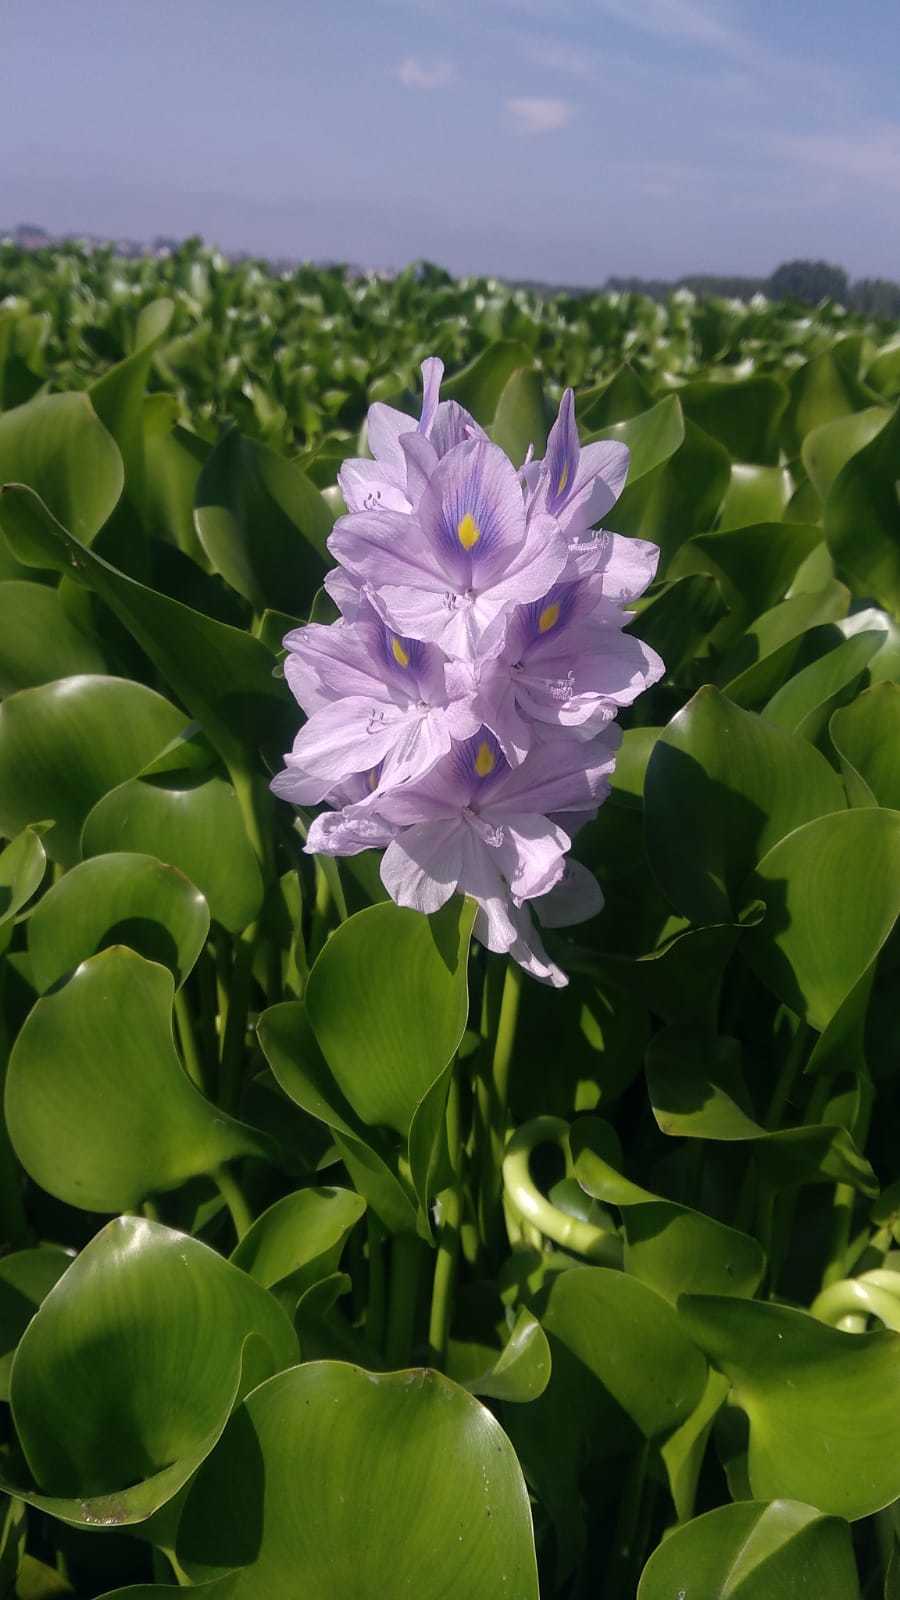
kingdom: Plantae
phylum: Tracheophyta
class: Liliopsida
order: Commelinales
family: Pontederiaceae
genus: Pontederia
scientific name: Pontederia crassipes
